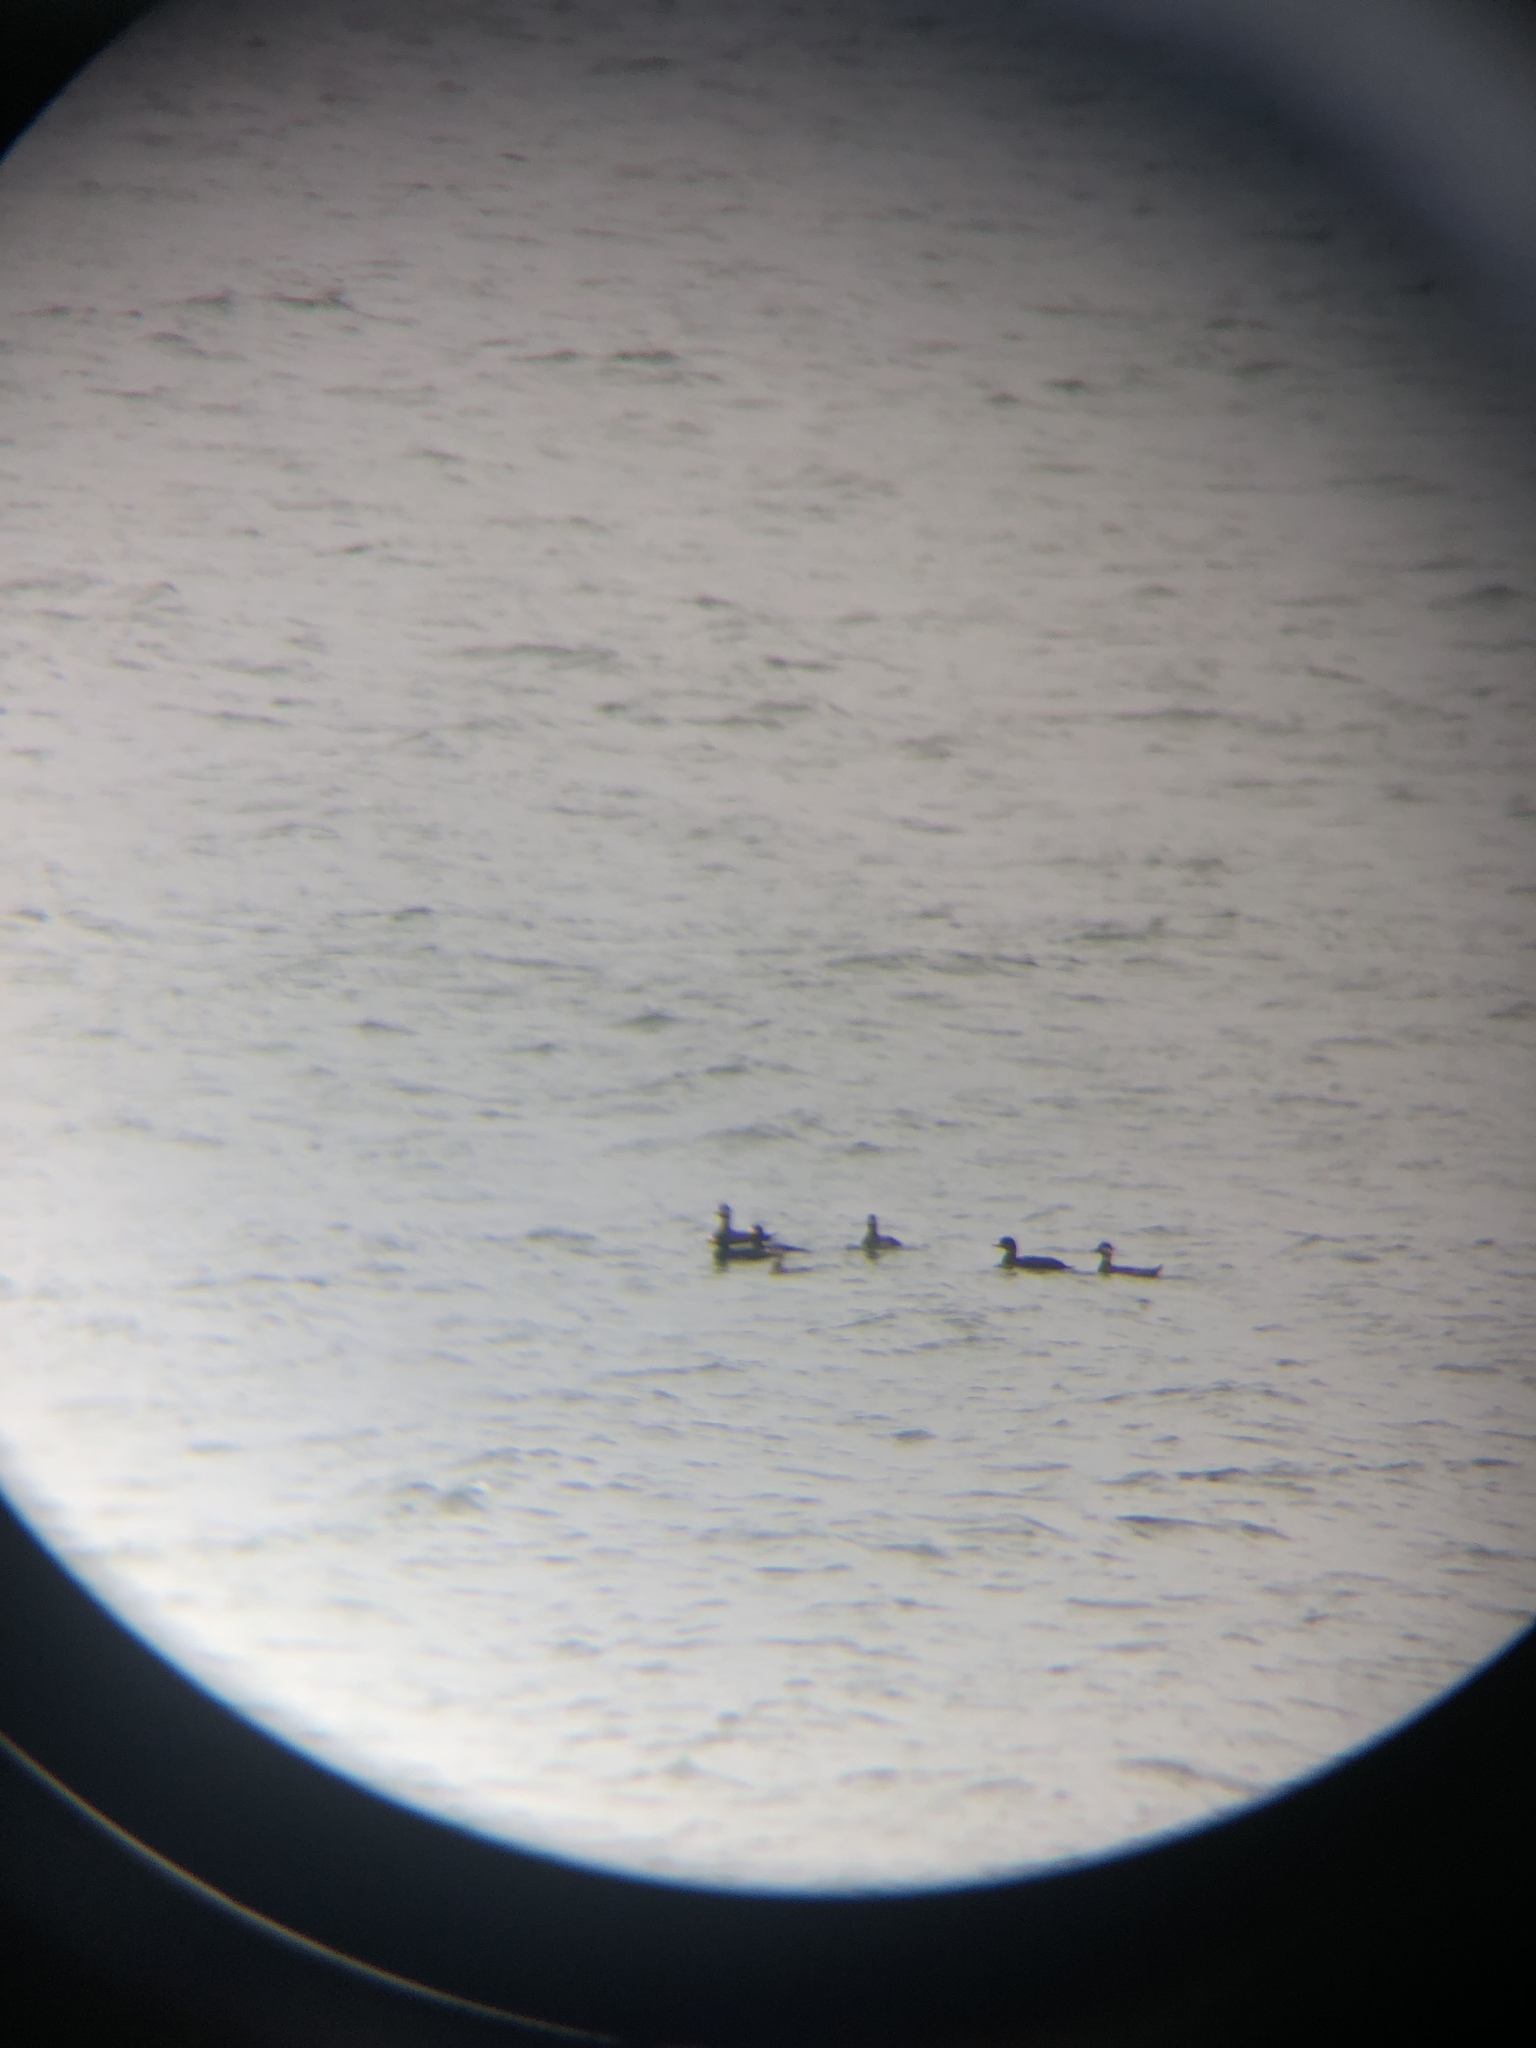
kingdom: Animalia
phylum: Chordata
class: Aves
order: Anseriformes
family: Anatidae
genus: Melanitta
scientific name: Melanitta americana
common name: Black scoter
